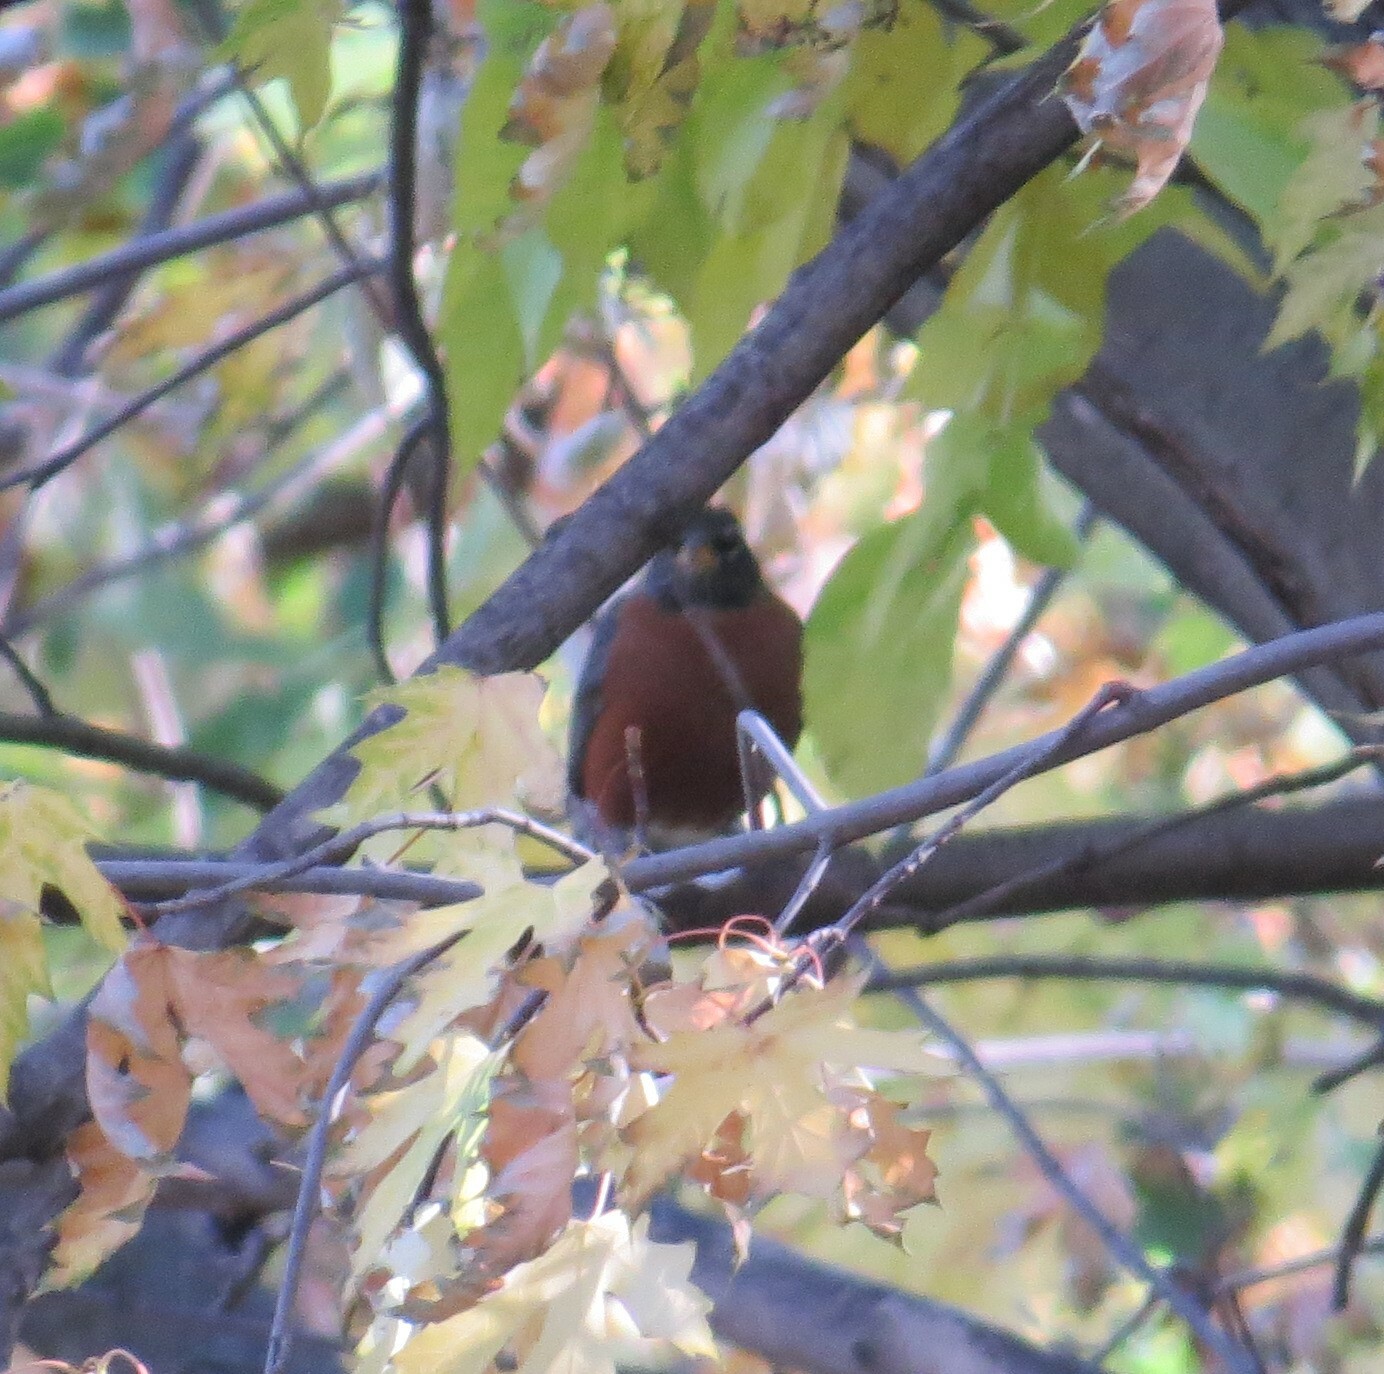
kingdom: Animalia
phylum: Chordata
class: Aves
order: Passeriformes
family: Turdidae
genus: Turdus
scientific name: Turdus migratorius
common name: American robin
